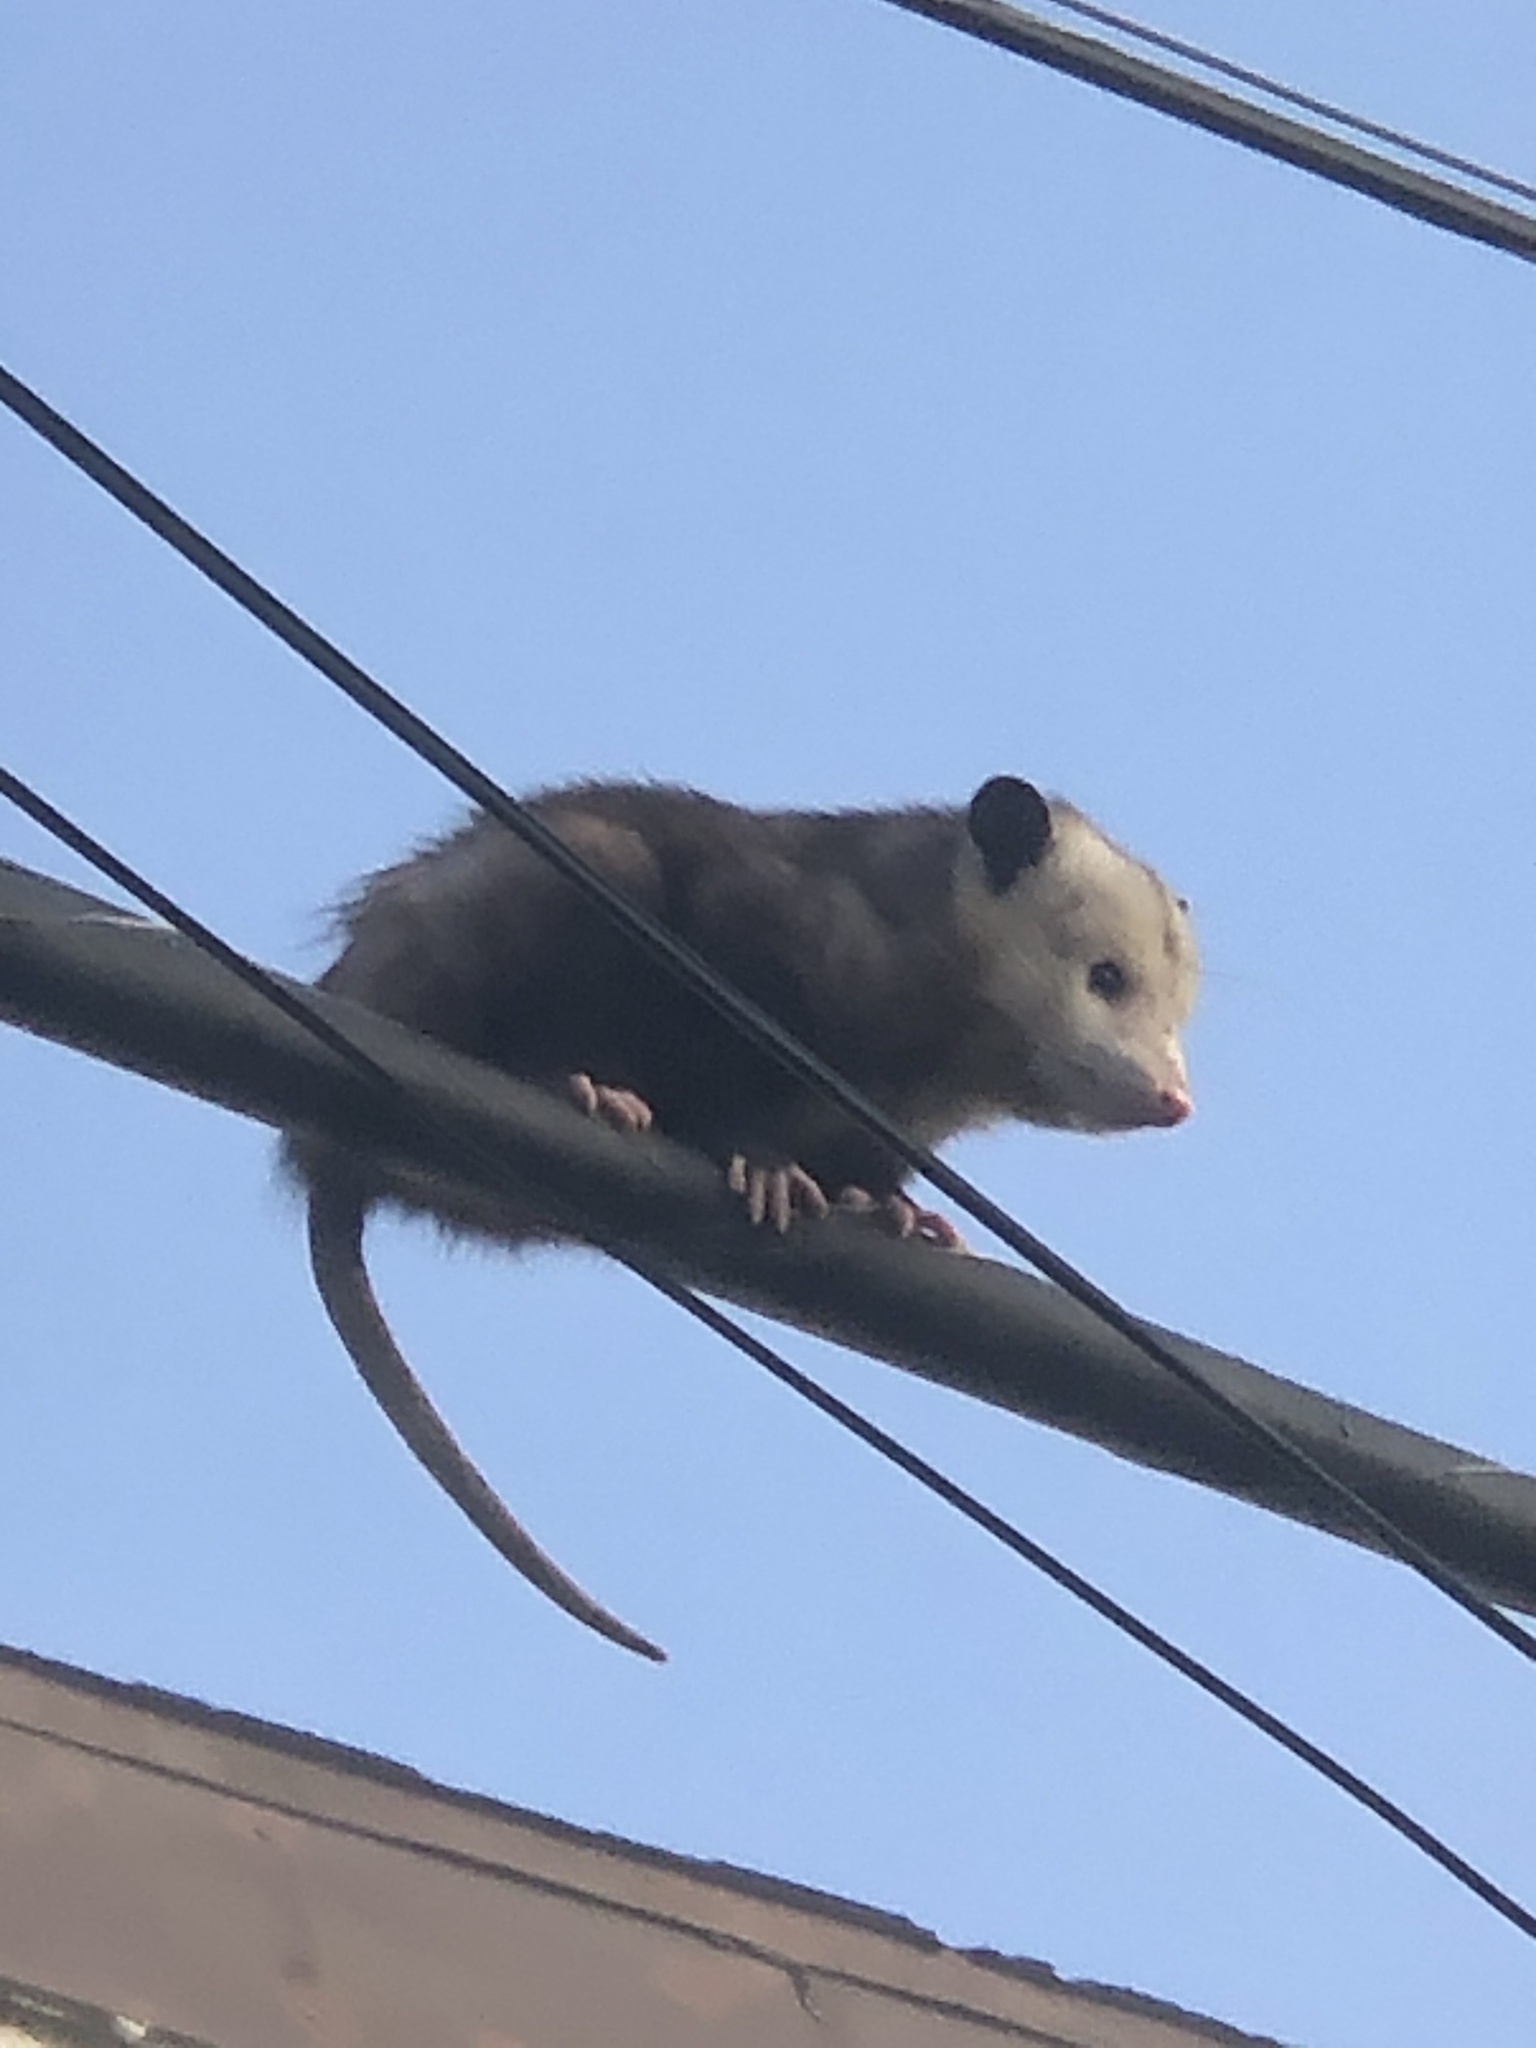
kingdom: Animalia
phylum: Chordata
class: Mammalia
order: Didelphimorphia
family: Didelphidae
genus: Didelphis
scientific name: Didelphis virginiana
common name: Virginia opossum
